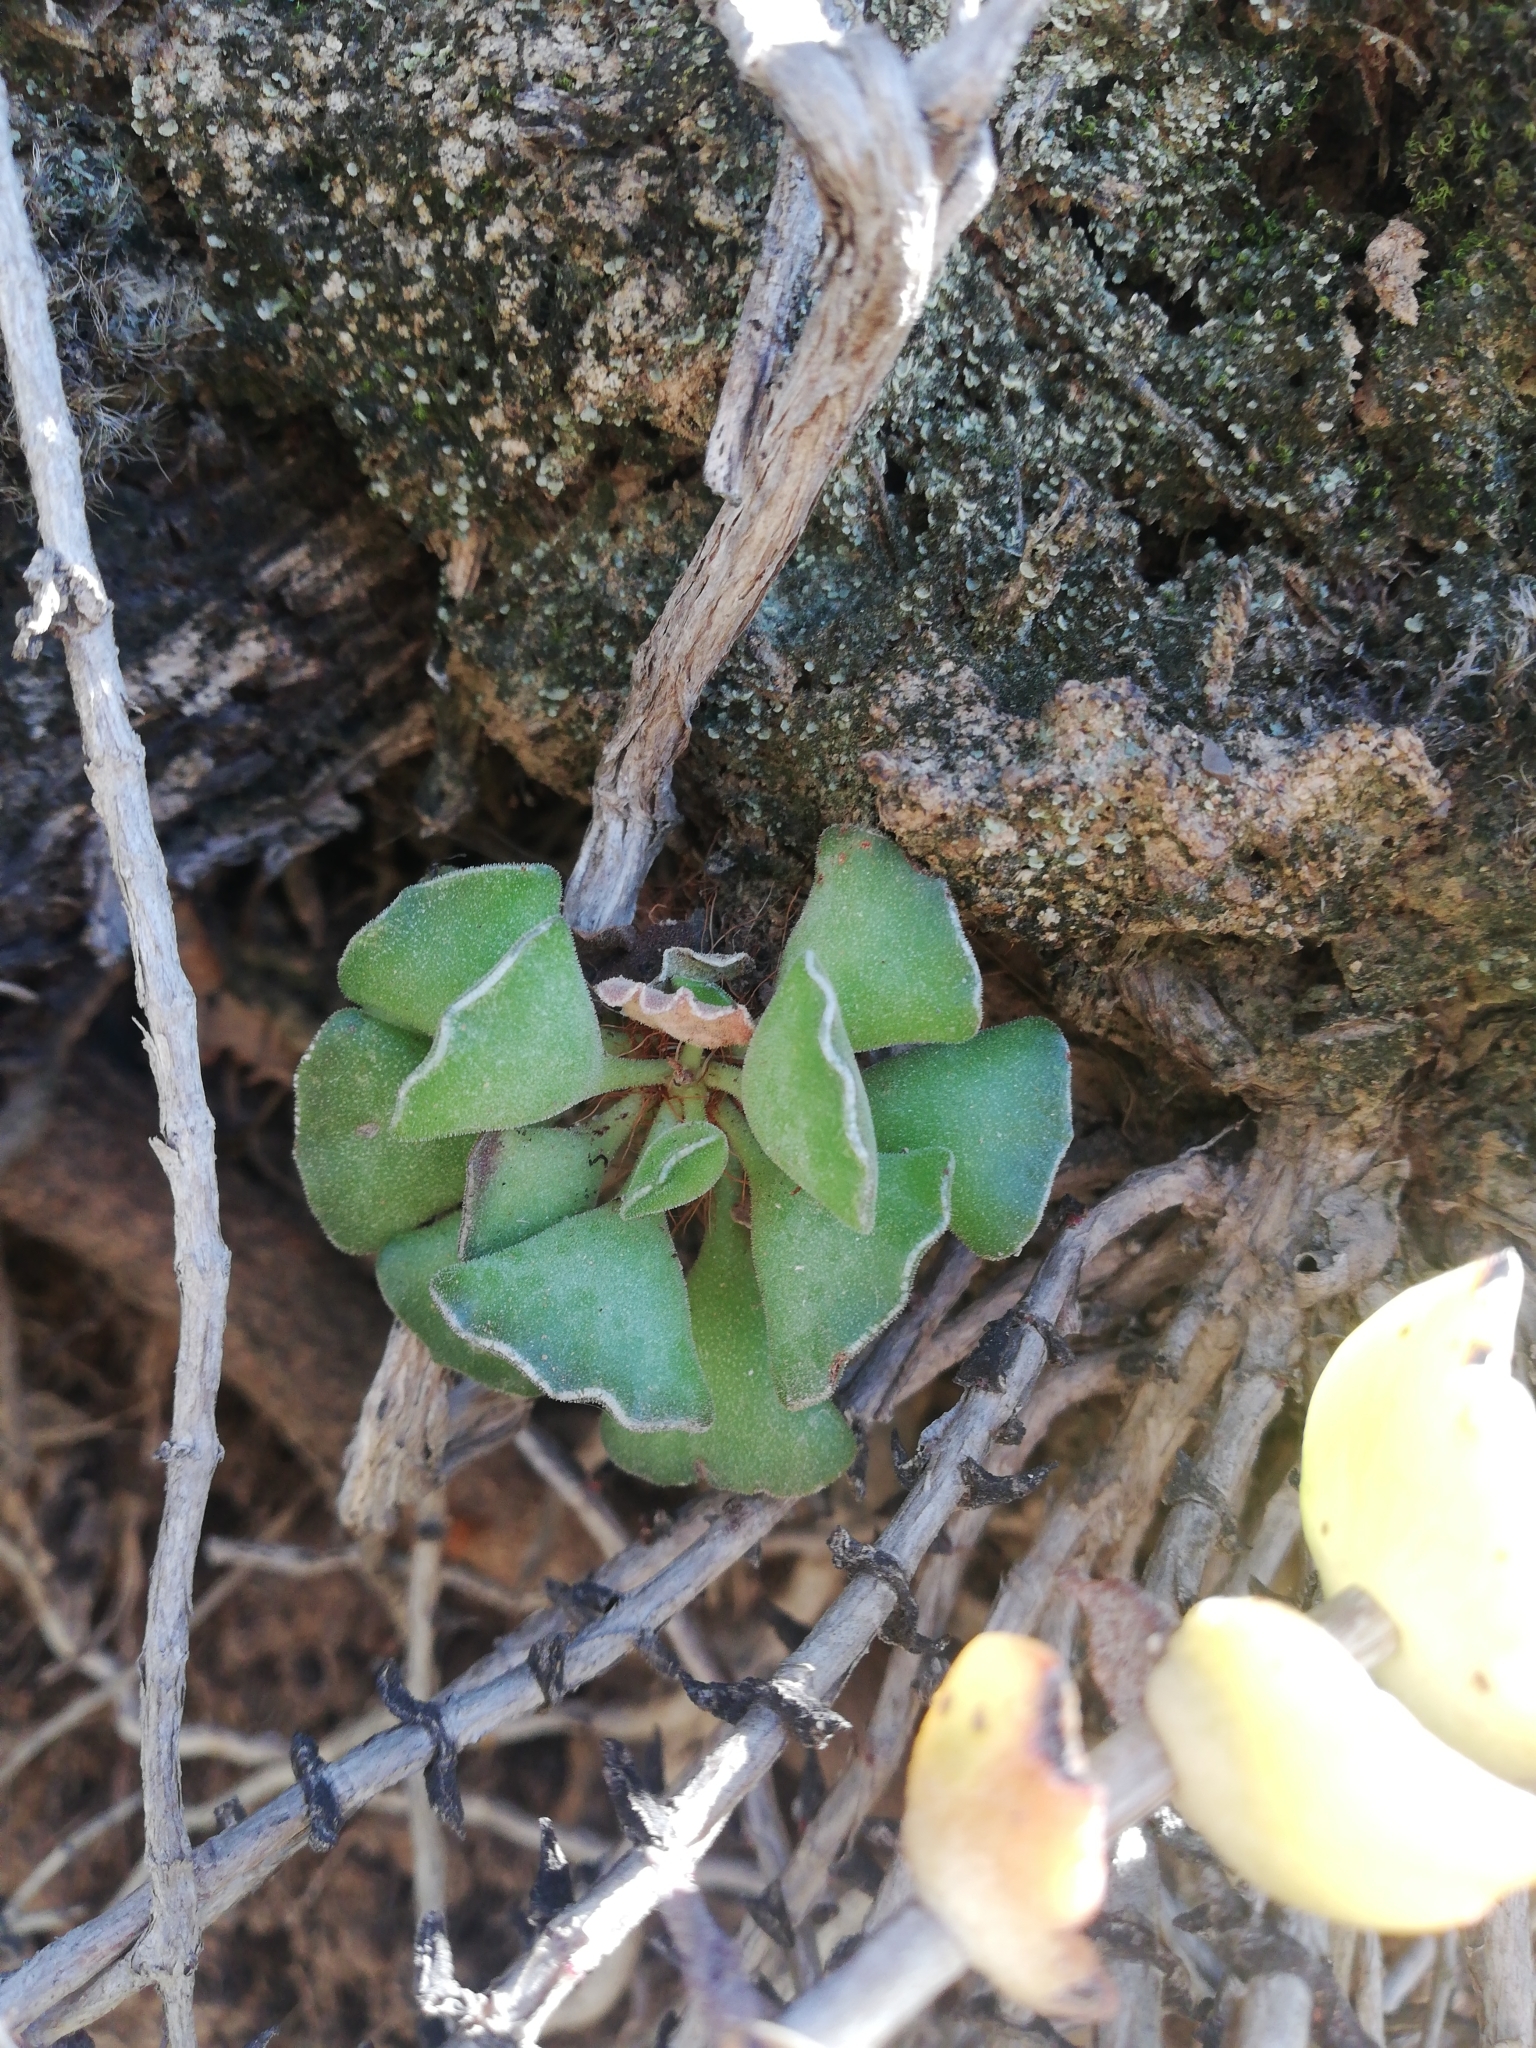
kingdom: Plantae
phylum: Tracheophyta
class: Magnoliopsida
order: Saxifragales
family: Crassulaceae
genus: Adromischus
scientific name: Adromischus cristatus
